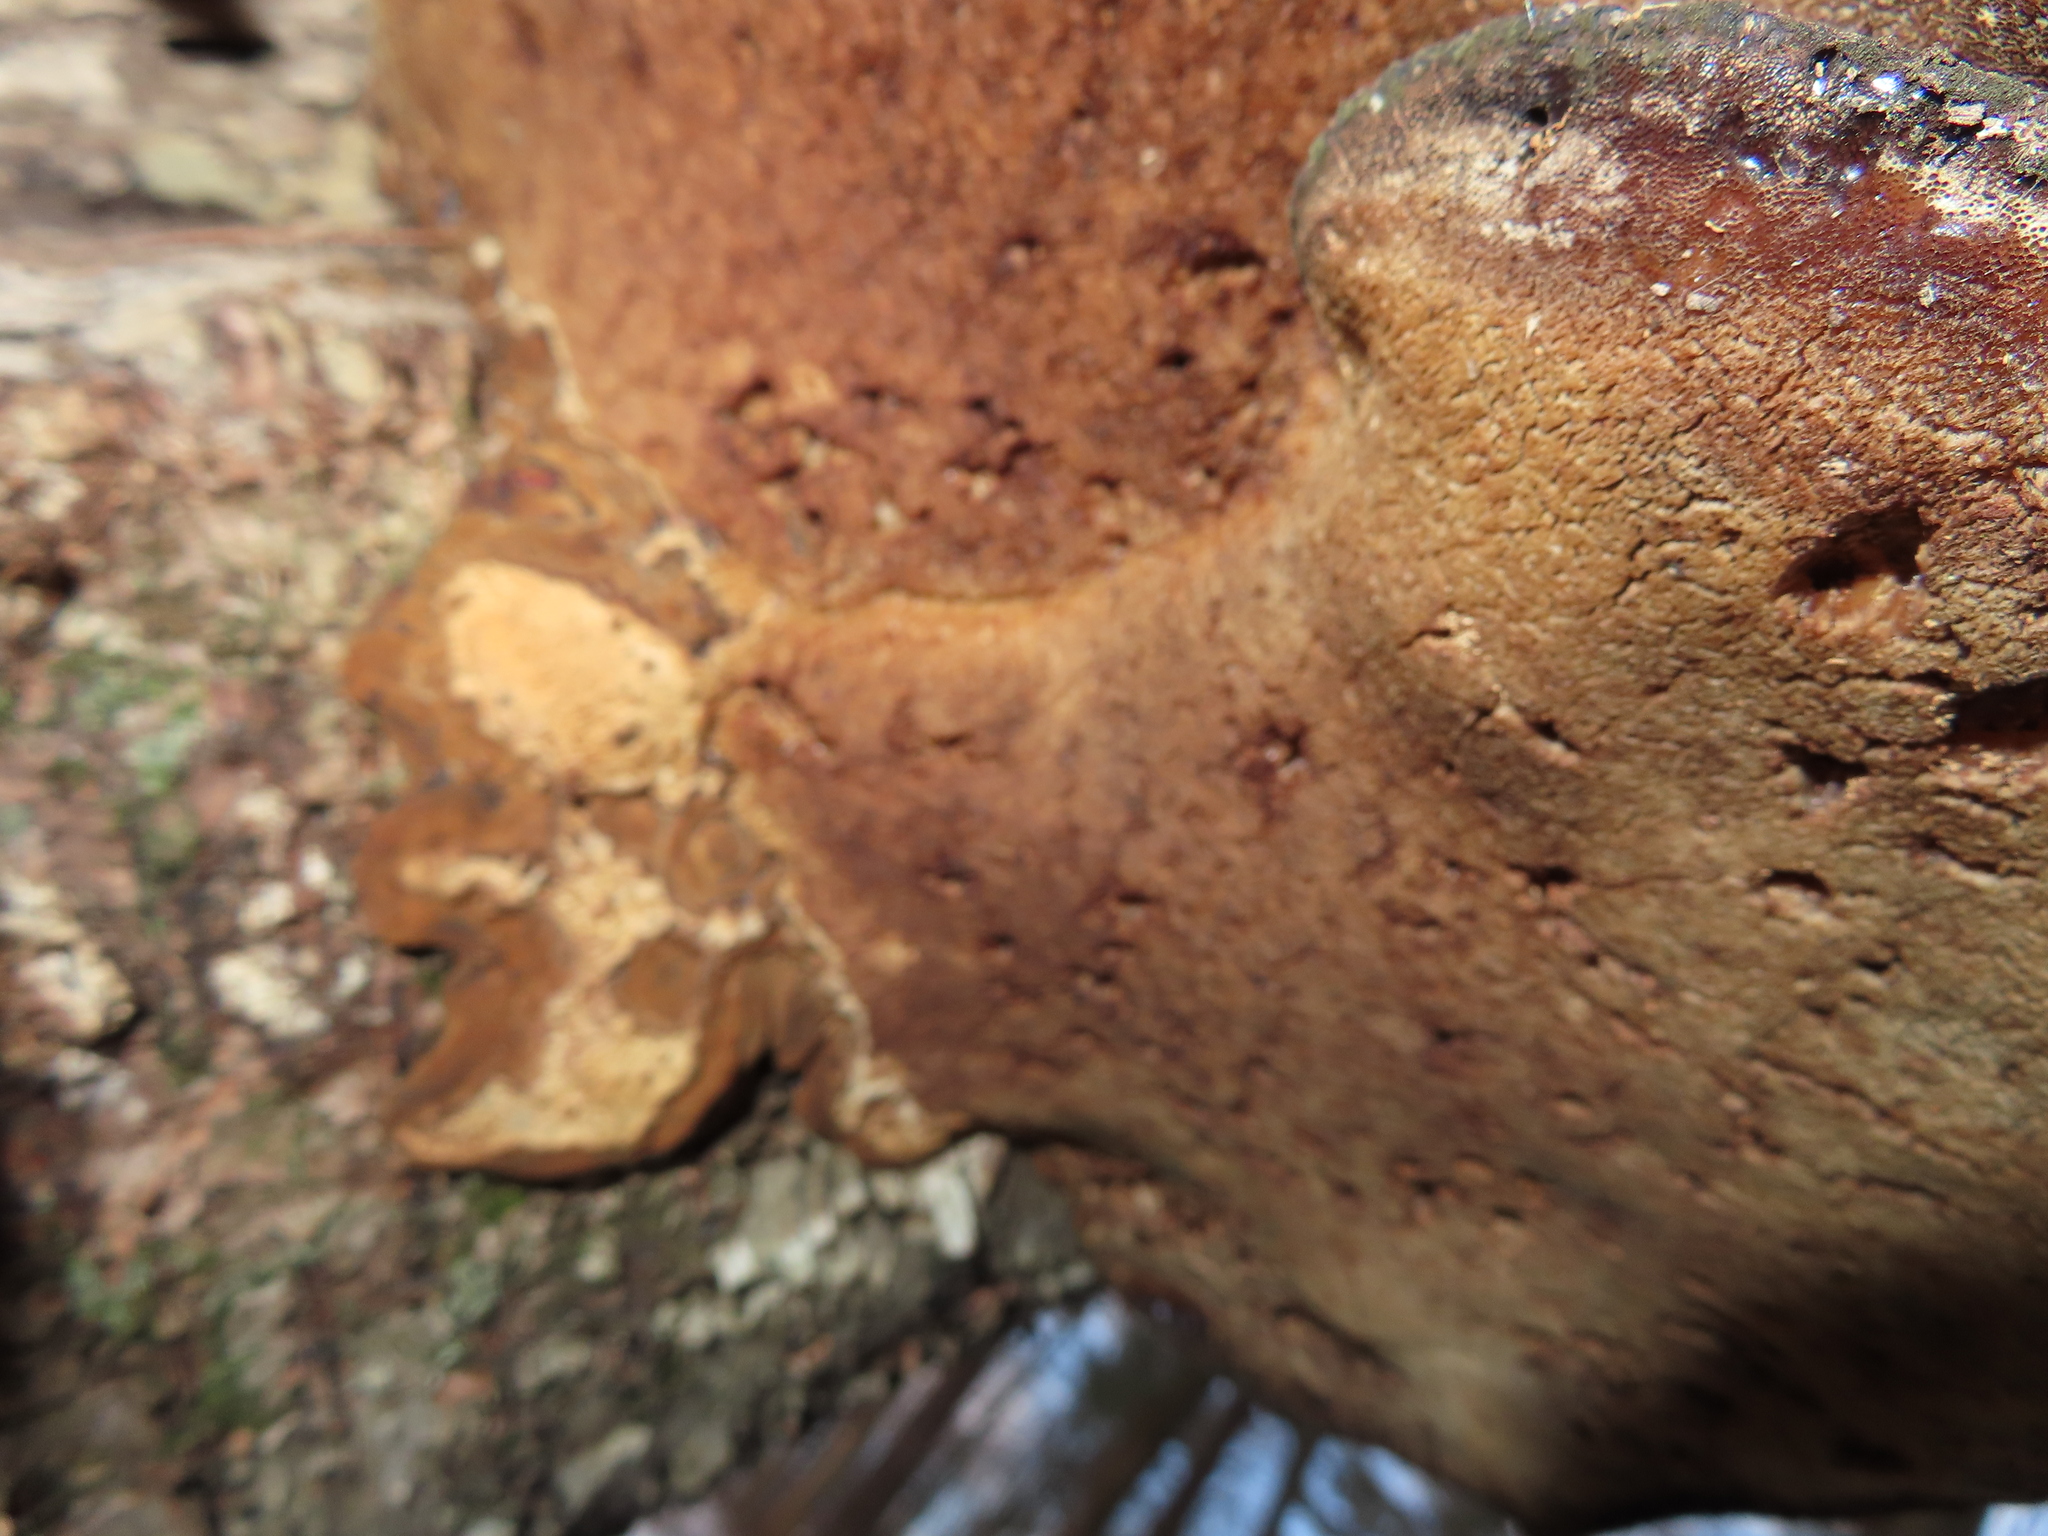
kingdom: Fungi
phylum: Basidiomycota
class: Agaricomycetes
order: Polyporales
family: Ischnodermataceae
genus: Ischnoderma
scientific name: Ischnoderma resinosum
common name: Resinous polypore
